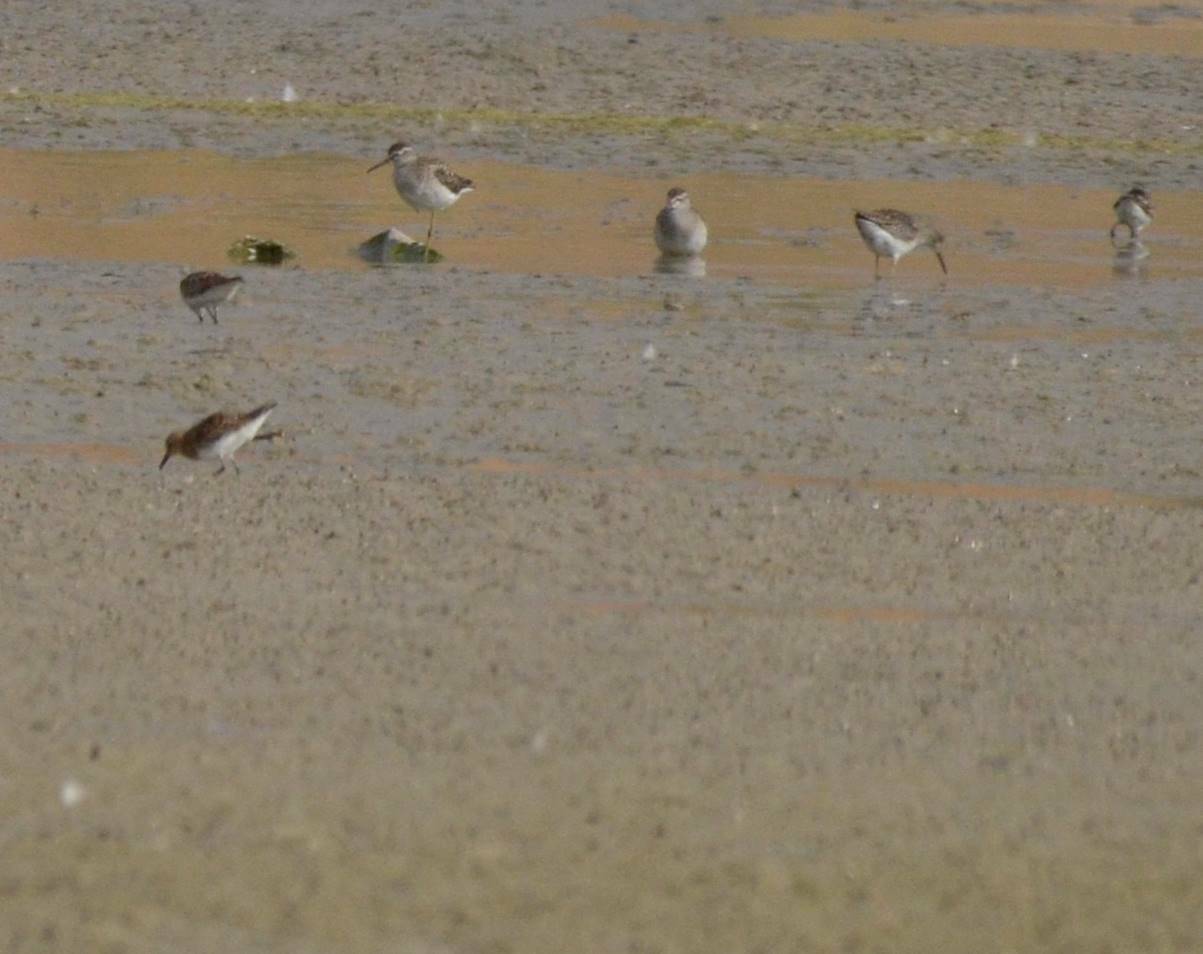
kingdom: Animalia
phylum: Chordata
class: Aves
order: Charadriiformes
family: Scolopacidae
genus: Tringa
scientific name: Tringa glareola
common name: Wood sandpiper
